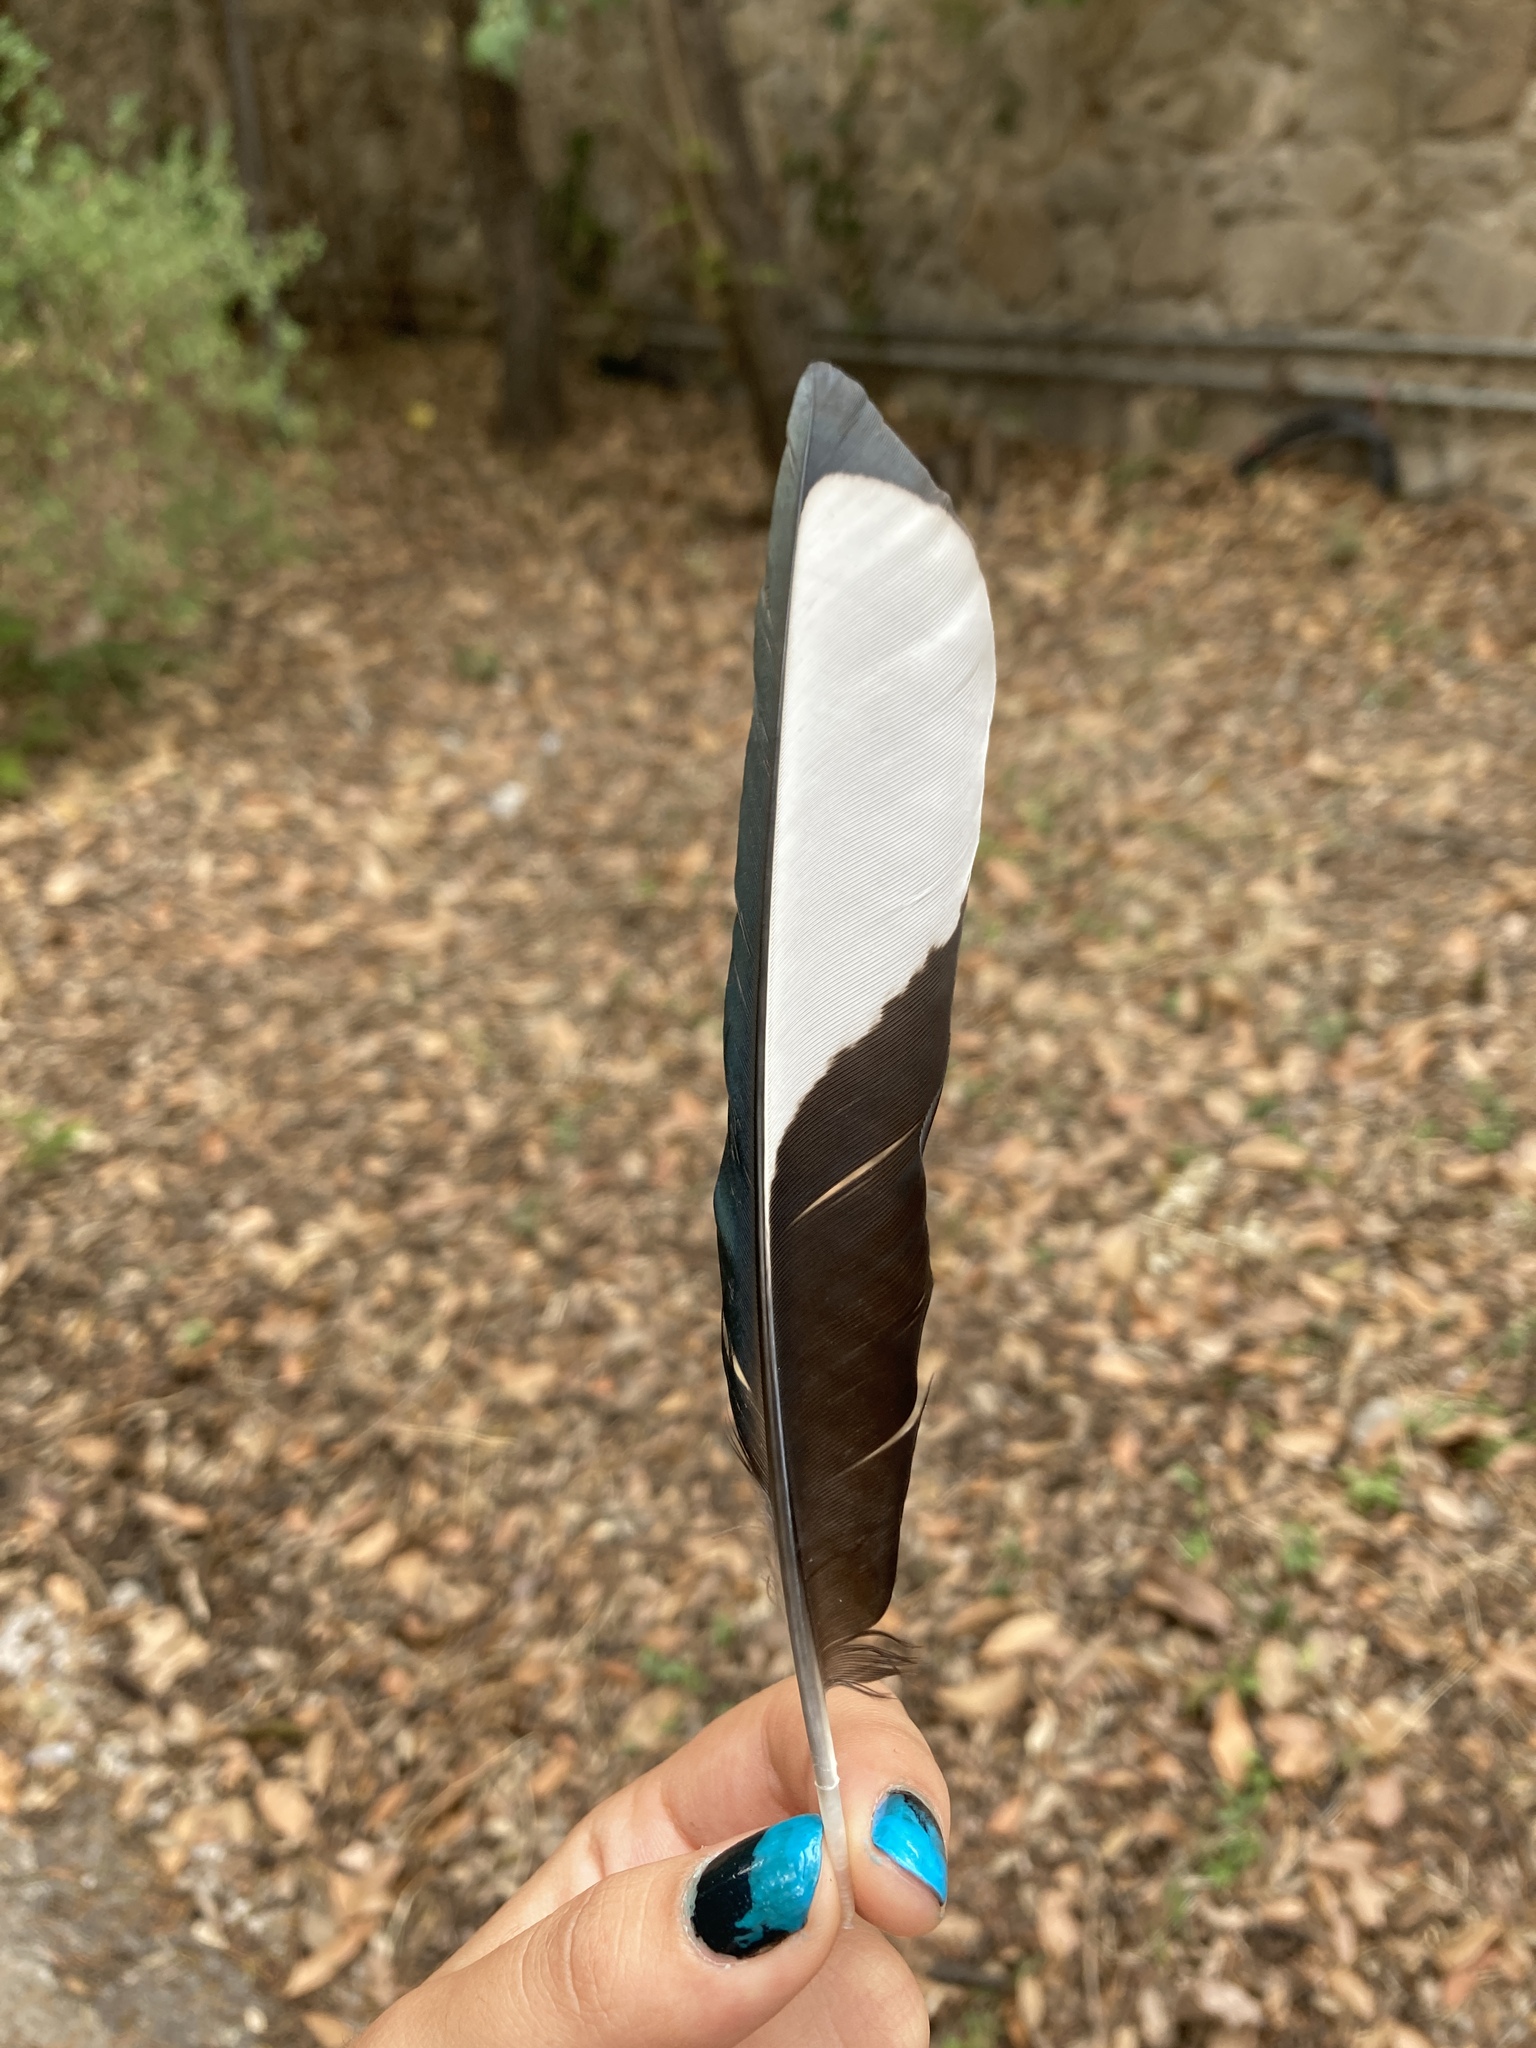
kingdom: Animalia
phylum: Chordata
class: Aves
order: Passeriformes
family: Corvidae
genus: Pica
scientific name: Pica pica
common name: Eurasian magpie
